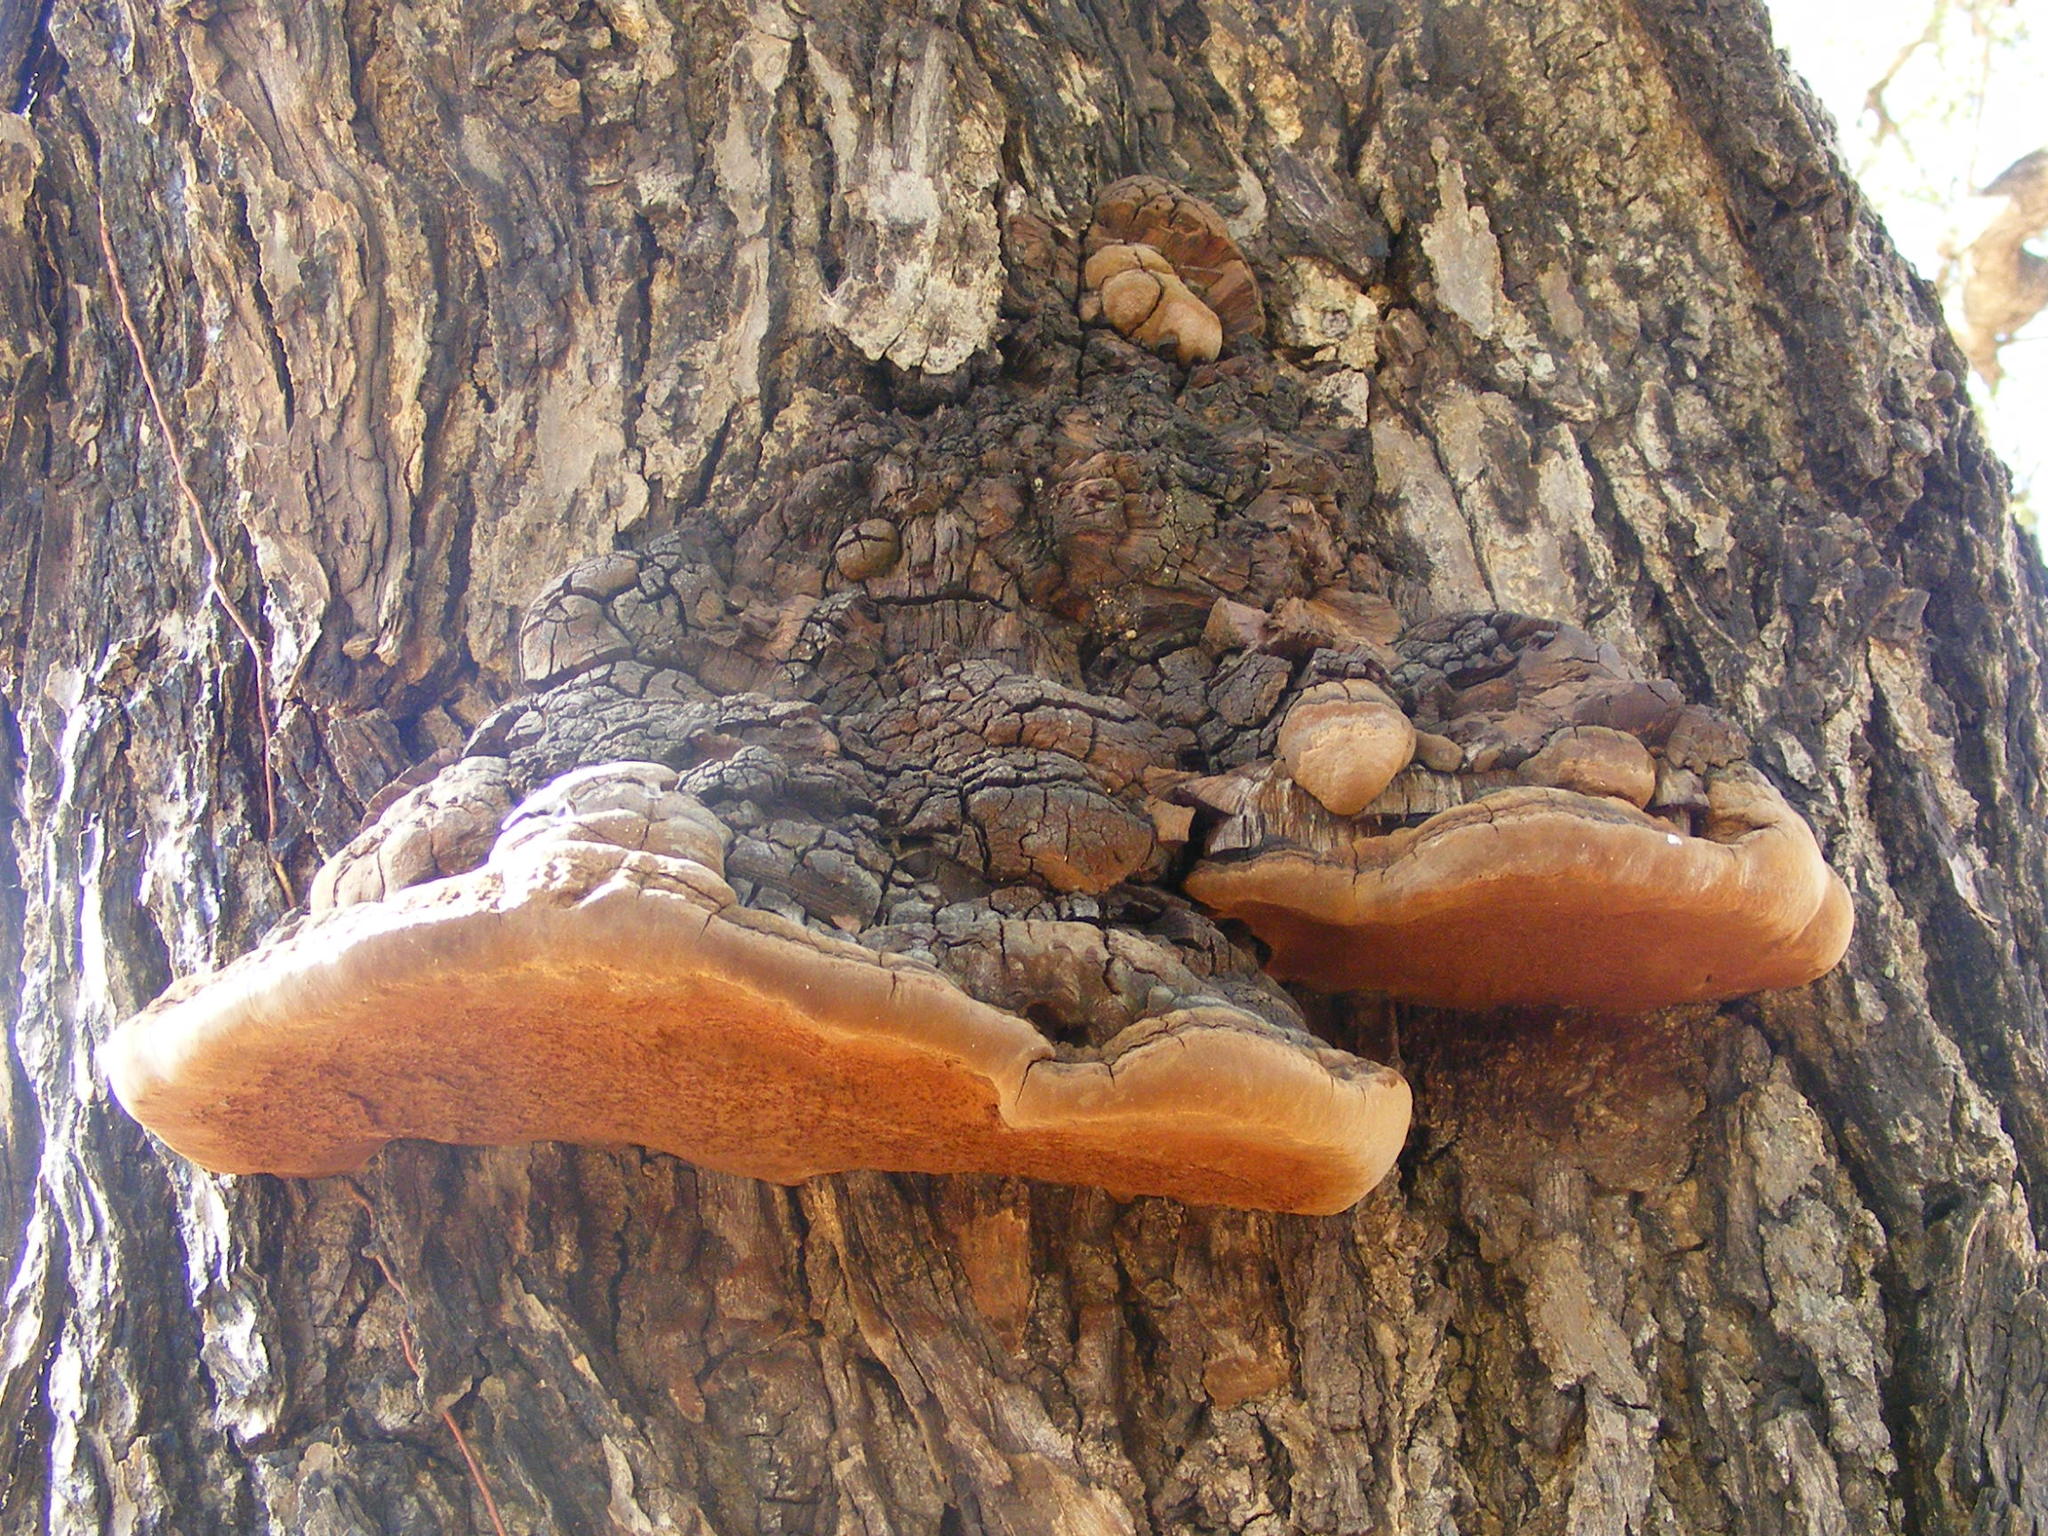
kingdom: Fungi
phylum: Basidiomycota
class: Agaricomycetes
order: Hymenochaetales
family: Hymenochaetaceae
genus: Fulvifomes
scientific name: Fulvifomes elaeodendri
